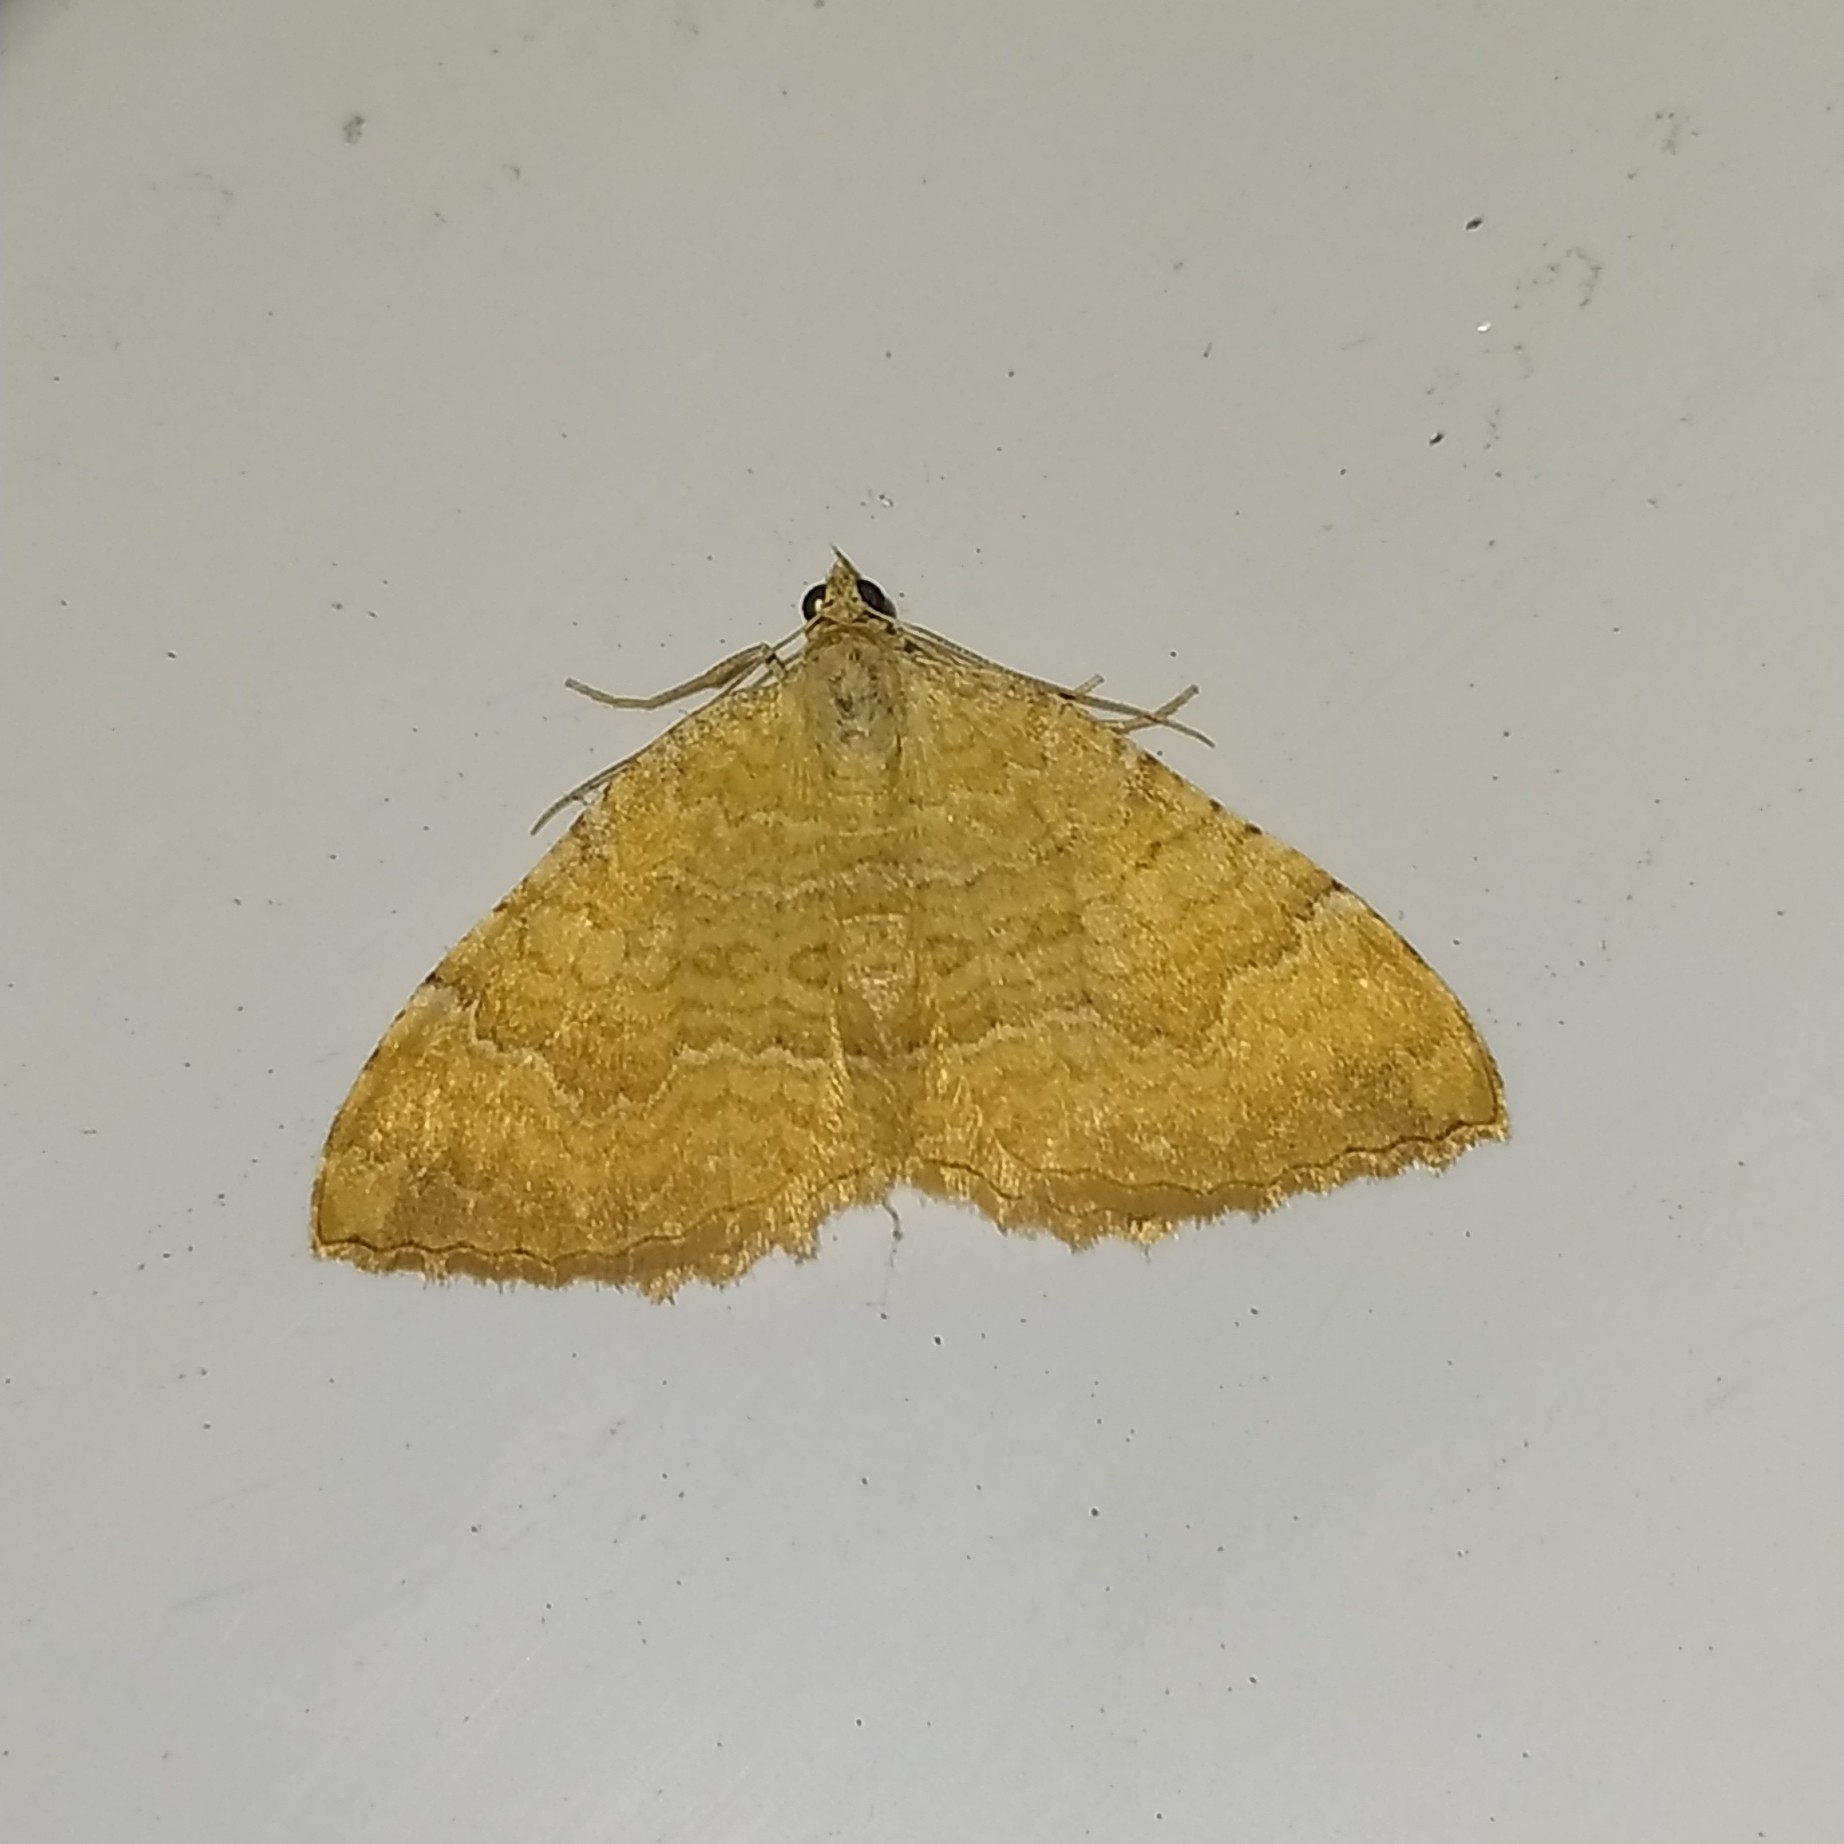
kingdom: Animalia
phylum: Arthropoda
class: Insecta
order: Lepidoptera
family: Geometridae
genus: Camptogramma
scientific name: Camptogramma bilineata
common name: Yellow shell
